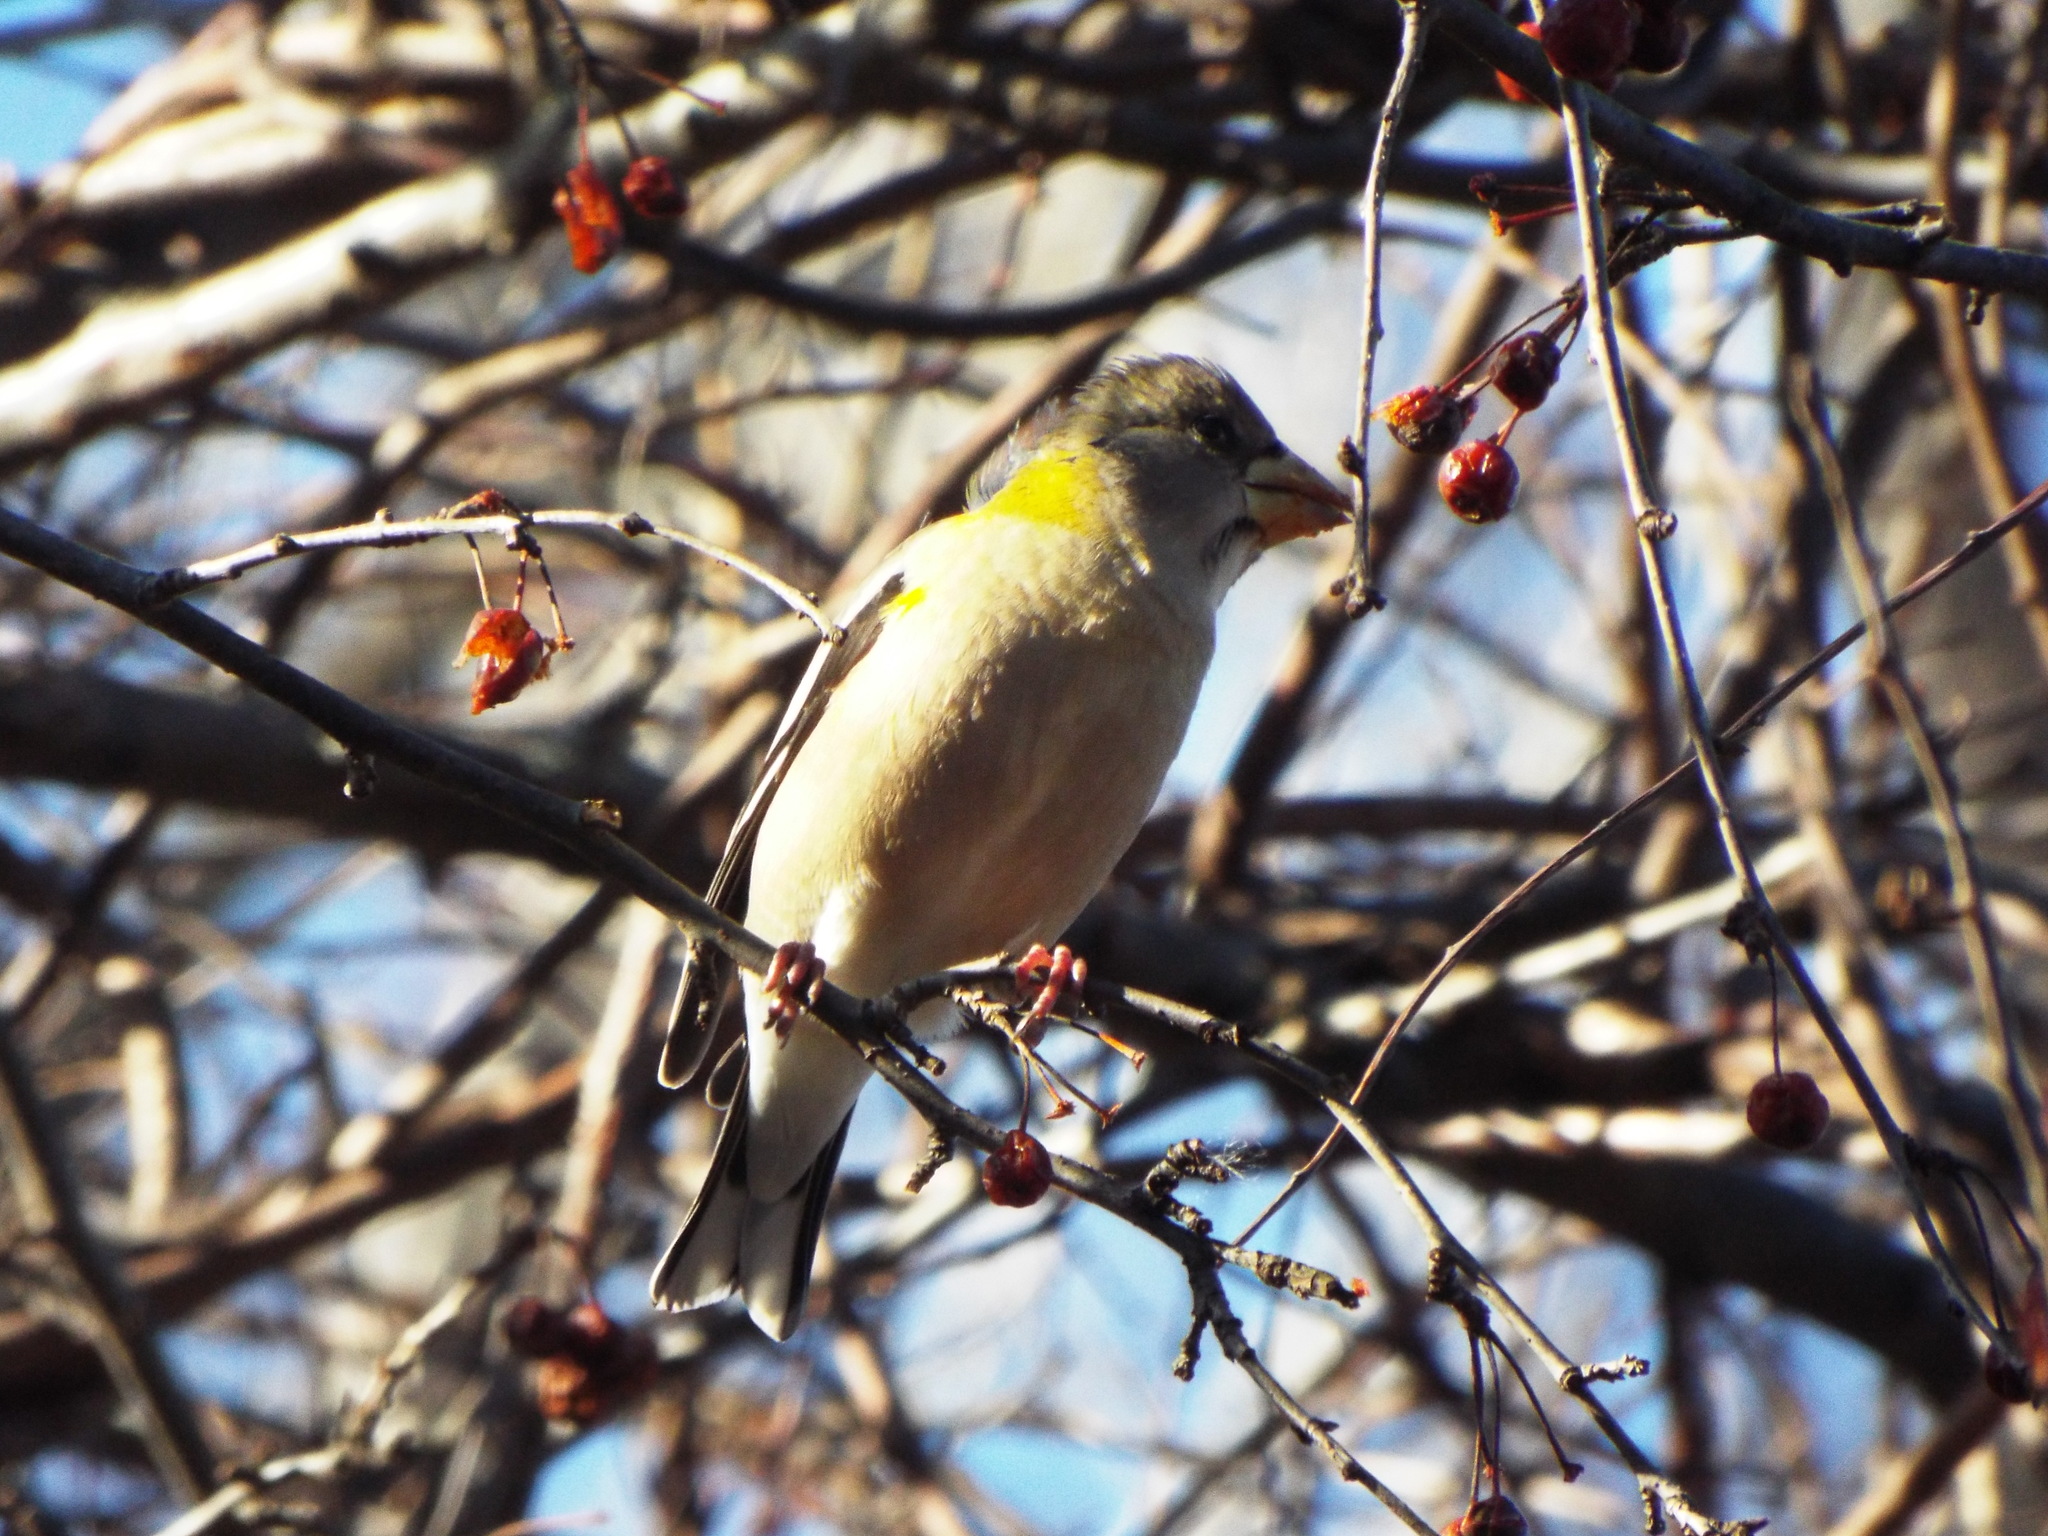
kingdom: Animalia
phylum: Chordata
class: Aves
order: Passeriformes
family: Fringillidae
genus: Hesperiphona
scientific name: Hesperiphona vespertina
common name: Evening grosbeak
